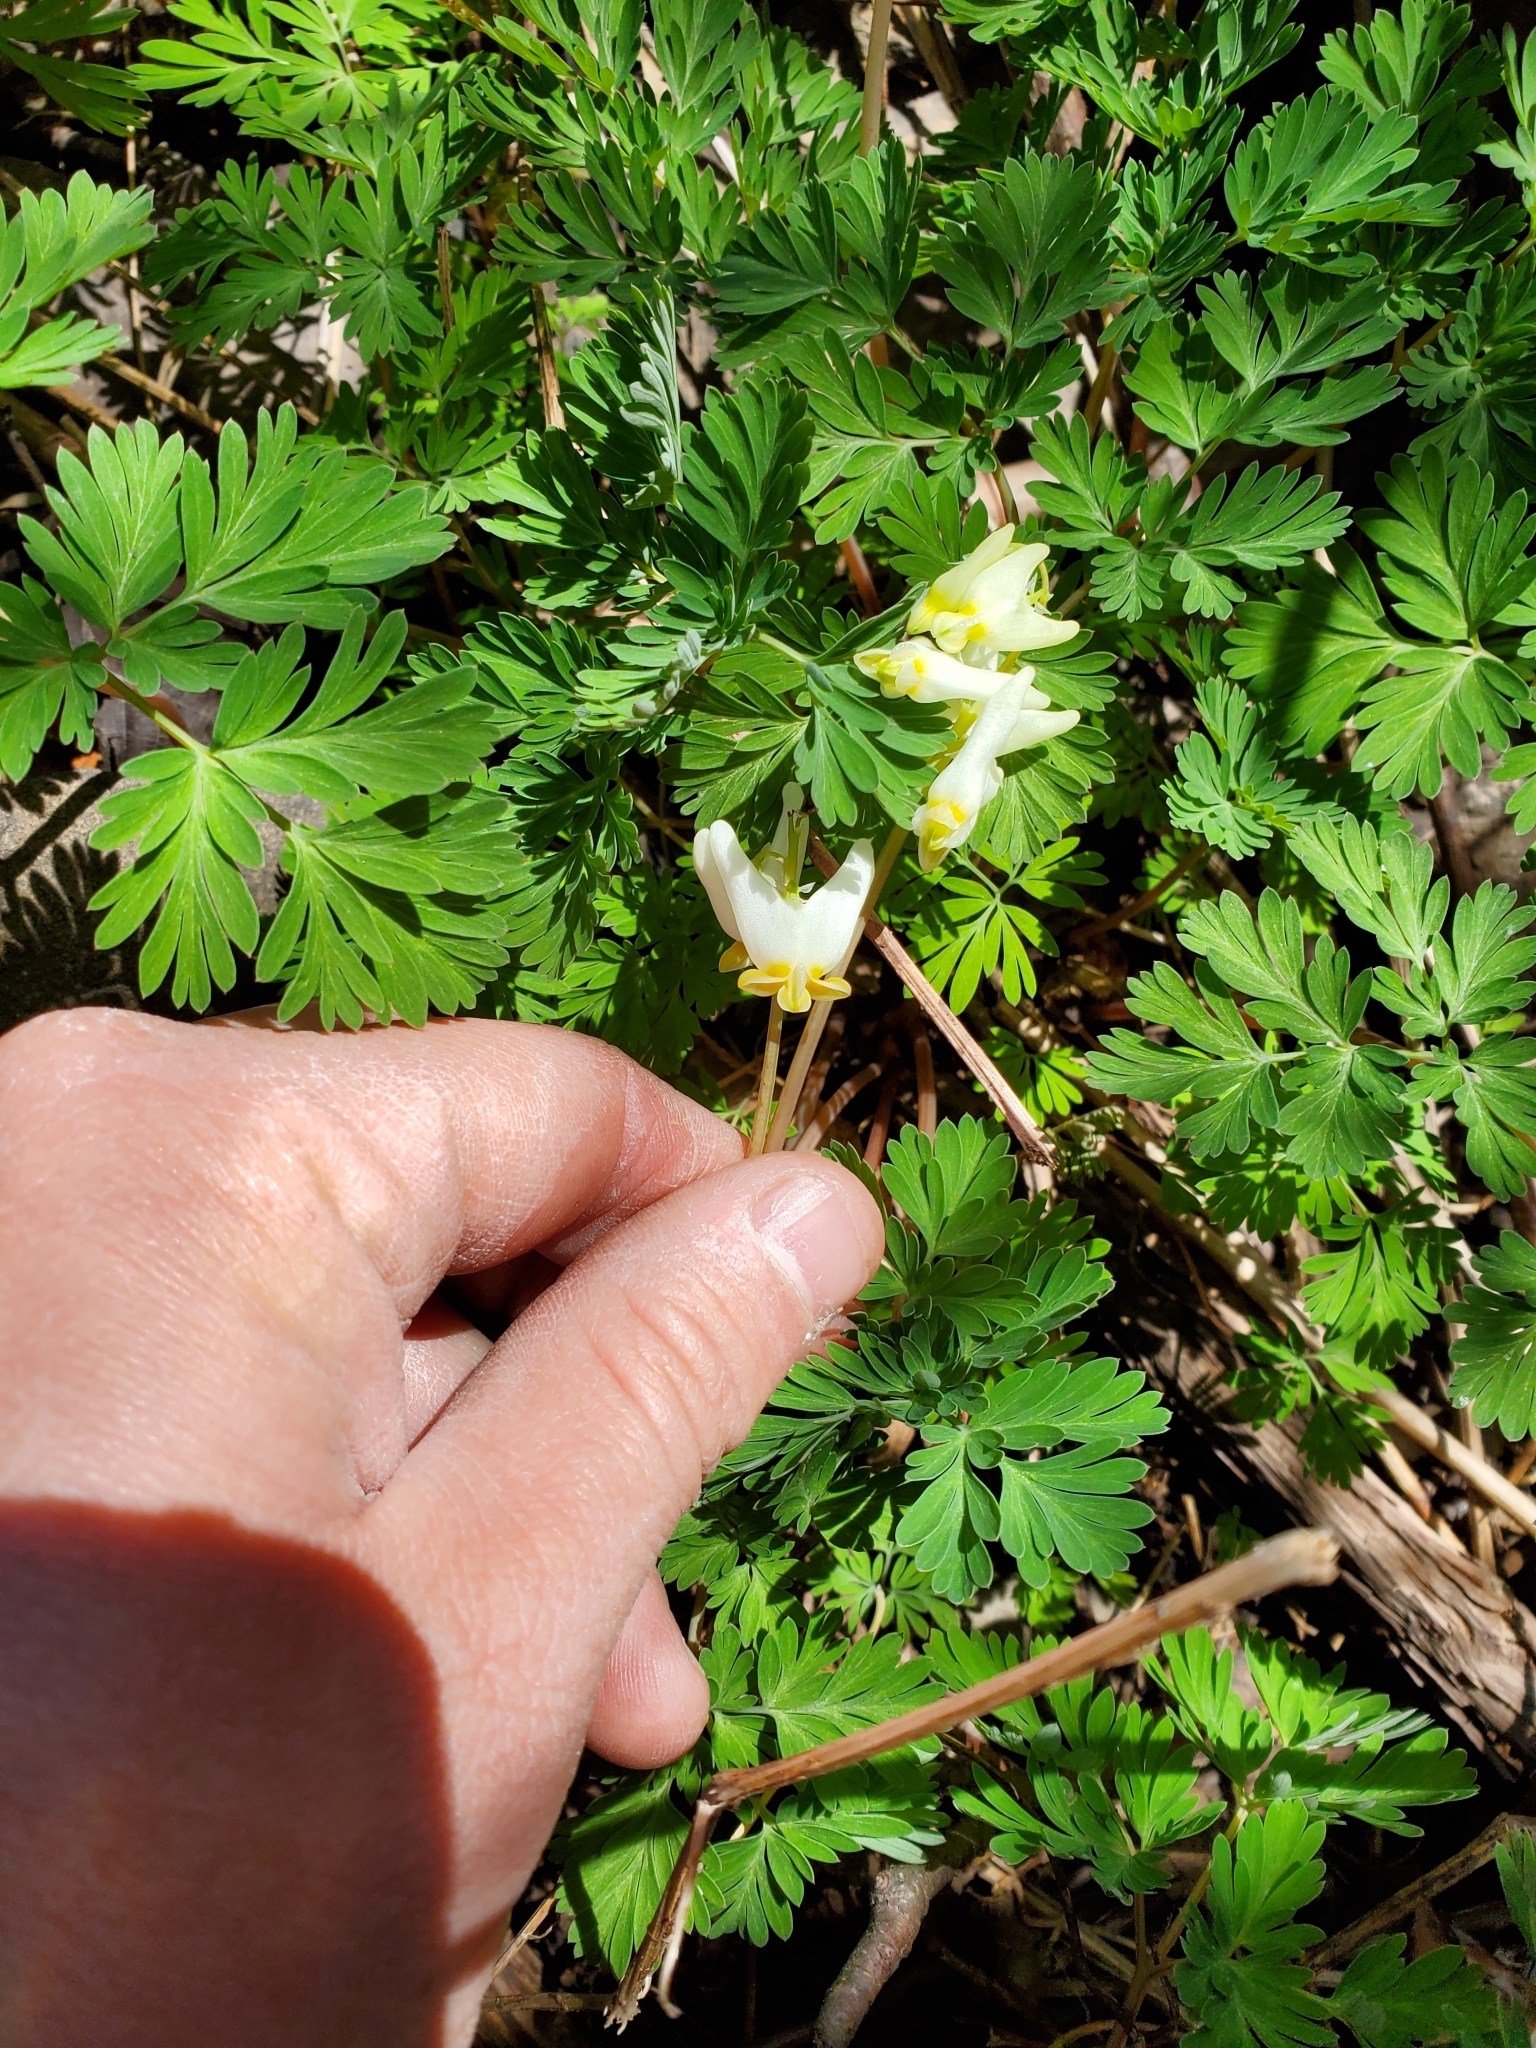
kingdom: Plantae
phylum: Tracheophyta
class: Magnoliopsida
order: Ranunculales
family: Papaveraceae
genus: Dicentra
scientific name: Dicentra cucullaria
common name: Dutchman's breeches
